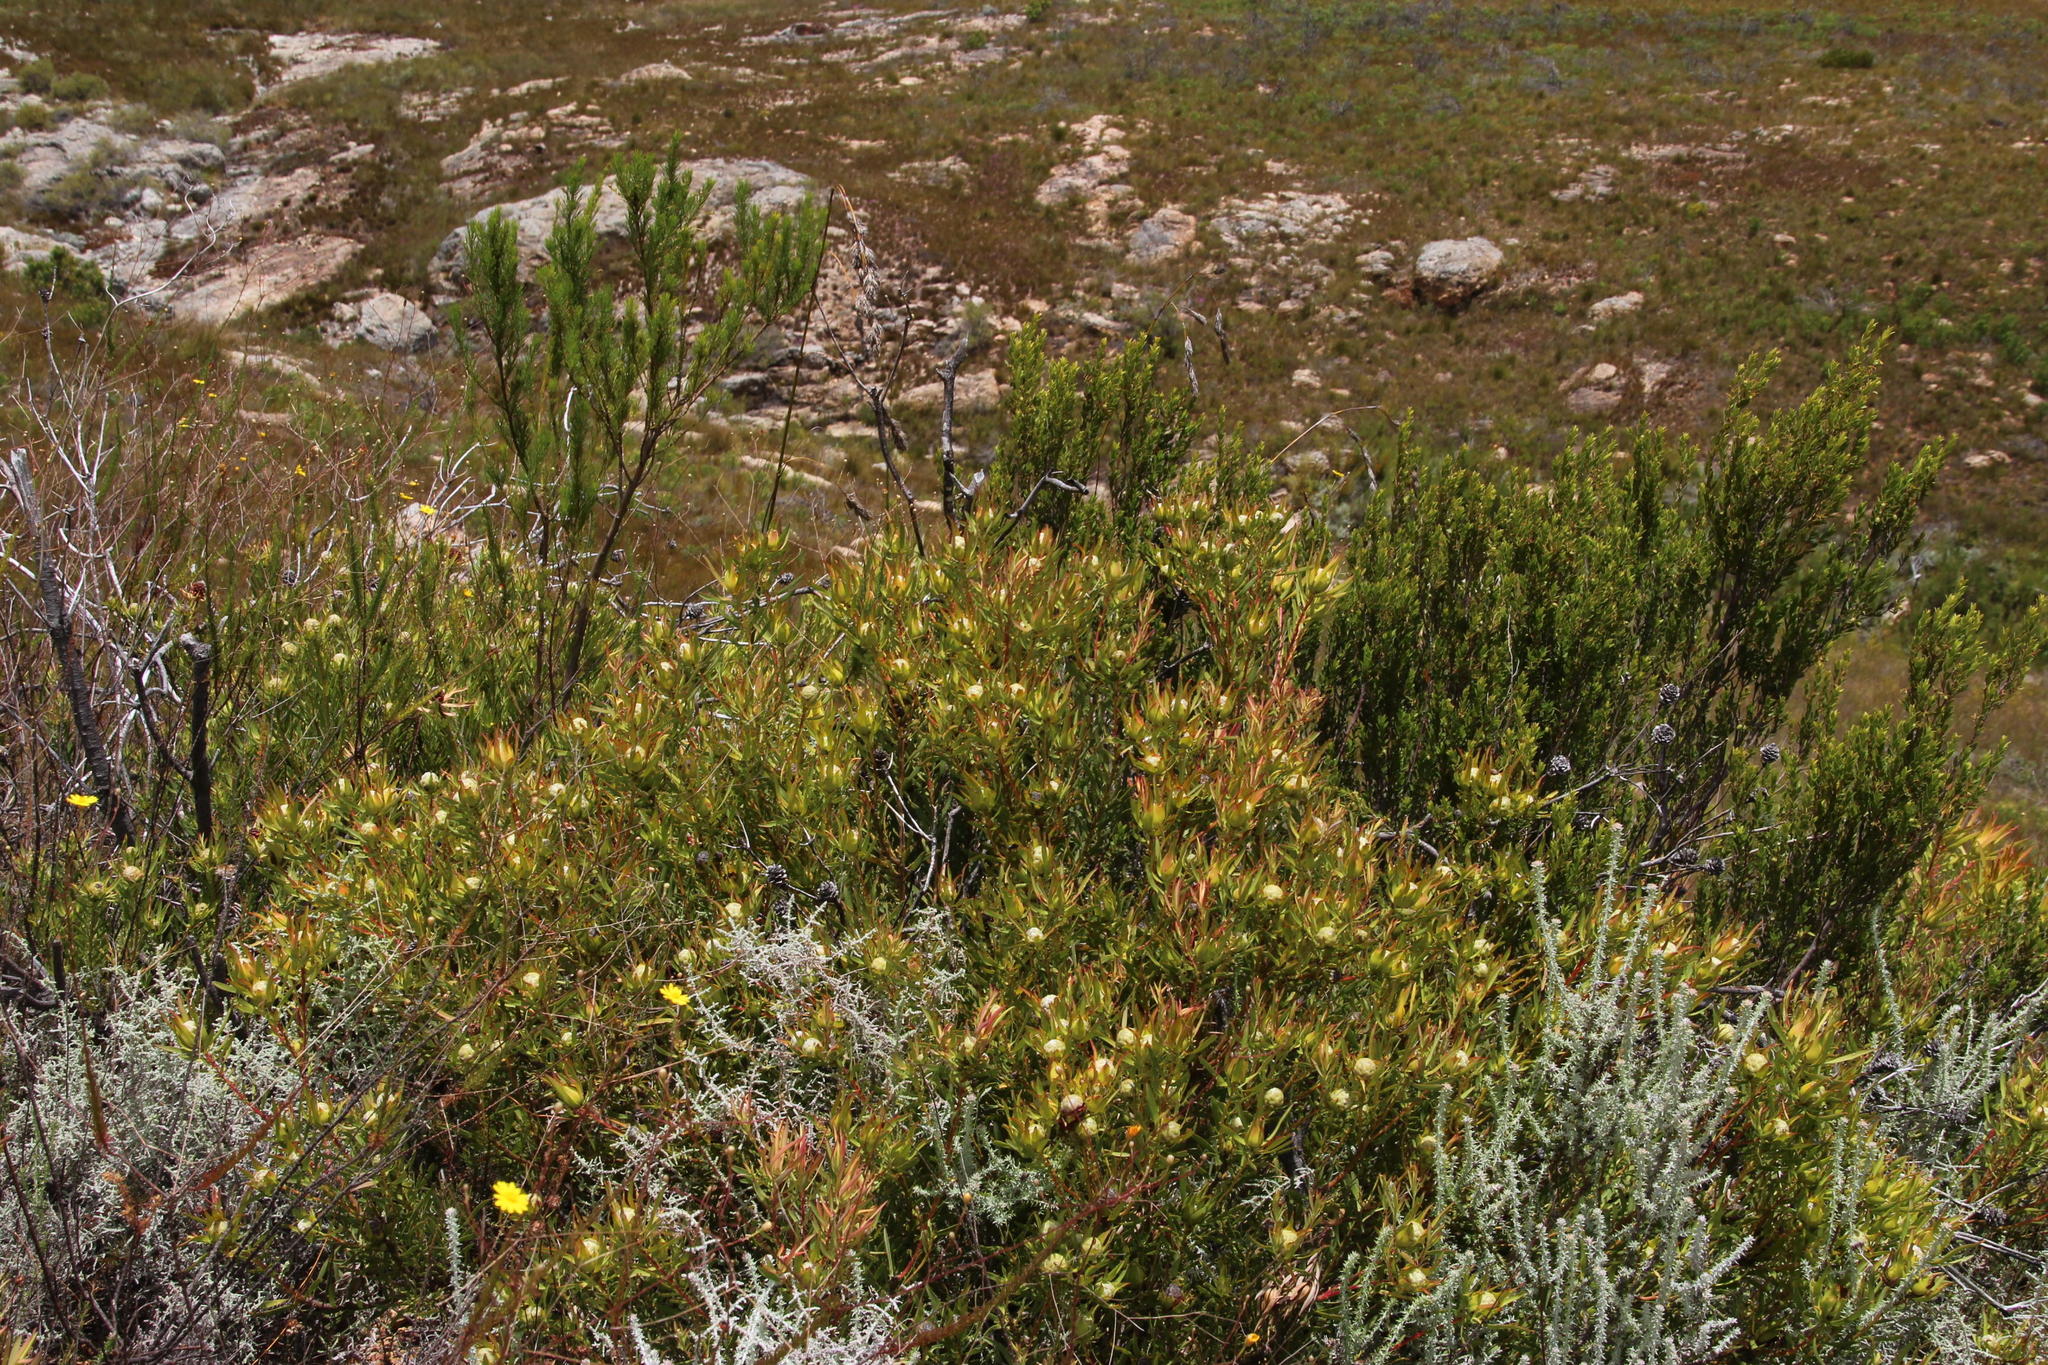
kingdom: Plantae
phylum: Tracheophyta
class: Magnoliopsida
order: Proteales
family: Proteaceae
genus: Leucadendron
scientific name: Leucadendron salignum
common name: Common sunshine conebush
